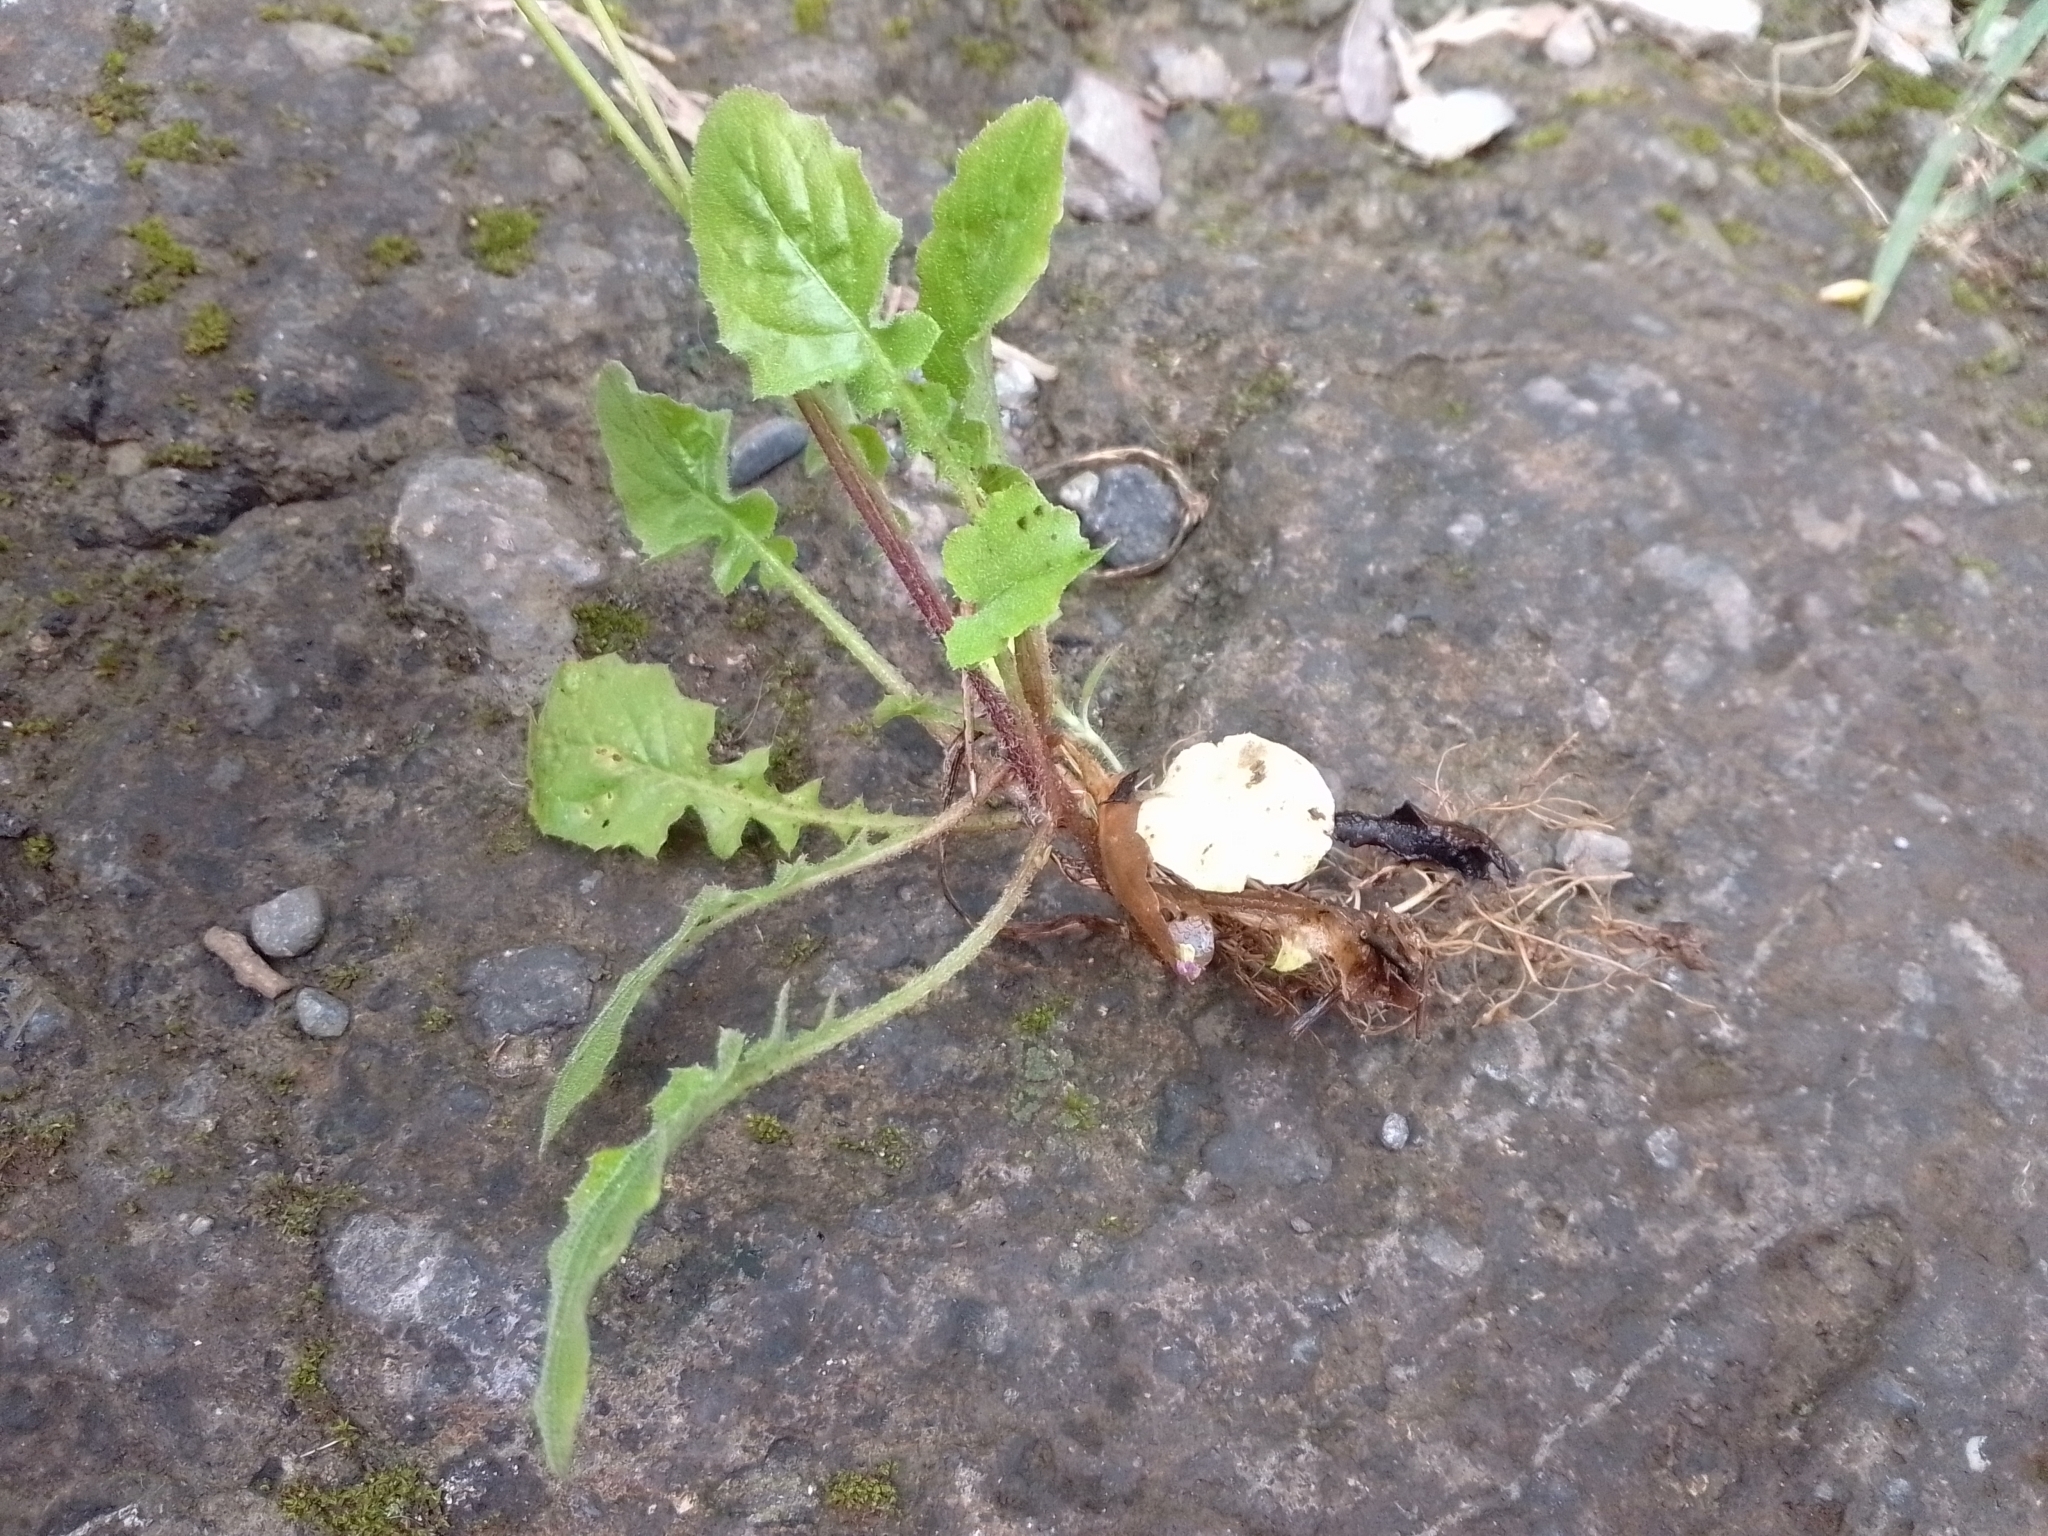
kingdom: Plantae
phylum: Tracheophyta
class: Magnoliopsida
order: Asterales
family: Asteraceae
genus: Youngia
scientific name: Youngia japonica
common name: Oriental false hawksbeard
